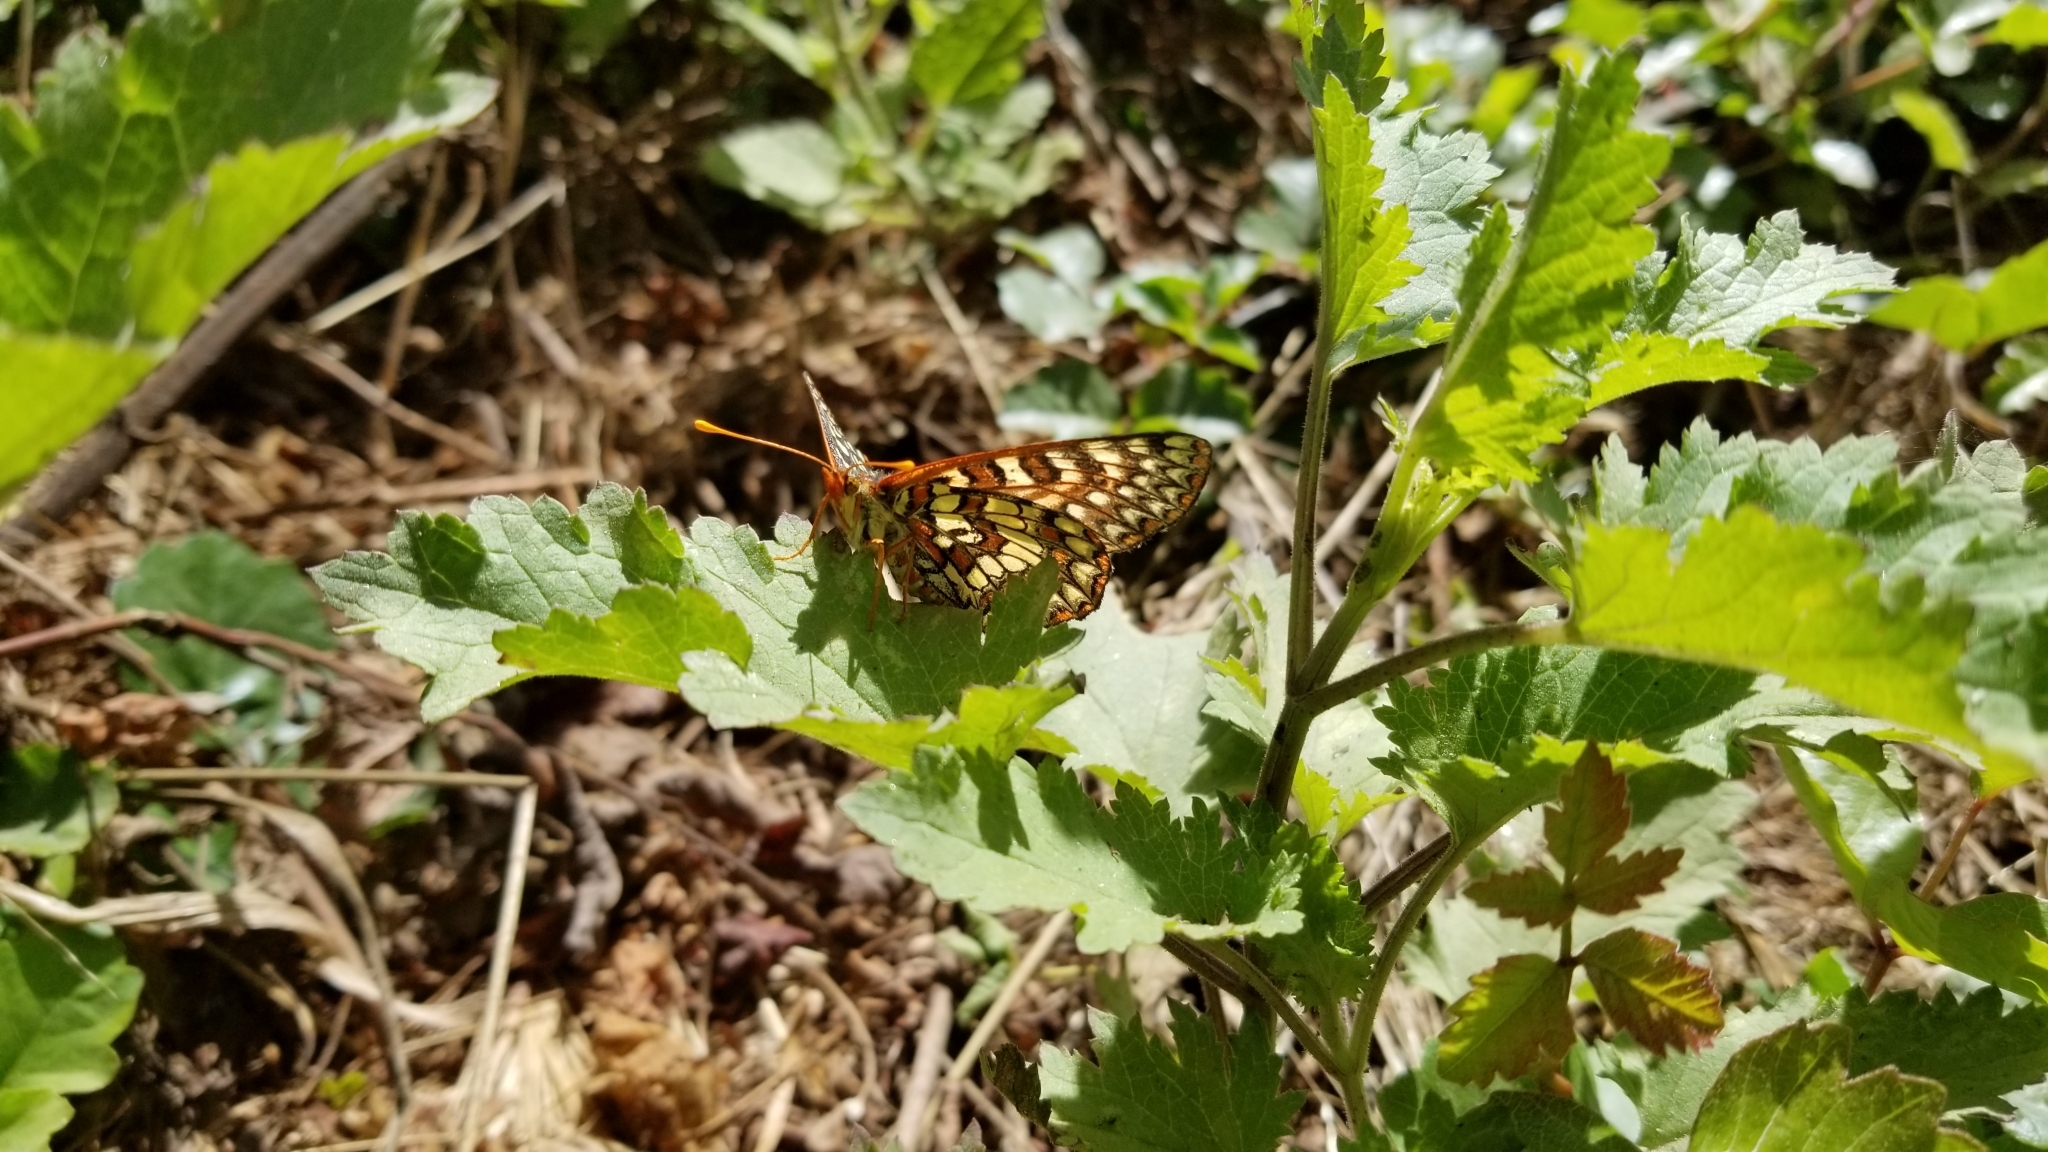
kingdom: Animalia
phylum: Arthropoda
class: Insecta
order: Lepidoptera
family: Nymphalidae
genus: Occidryas
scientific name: Occidryas chalcedona
